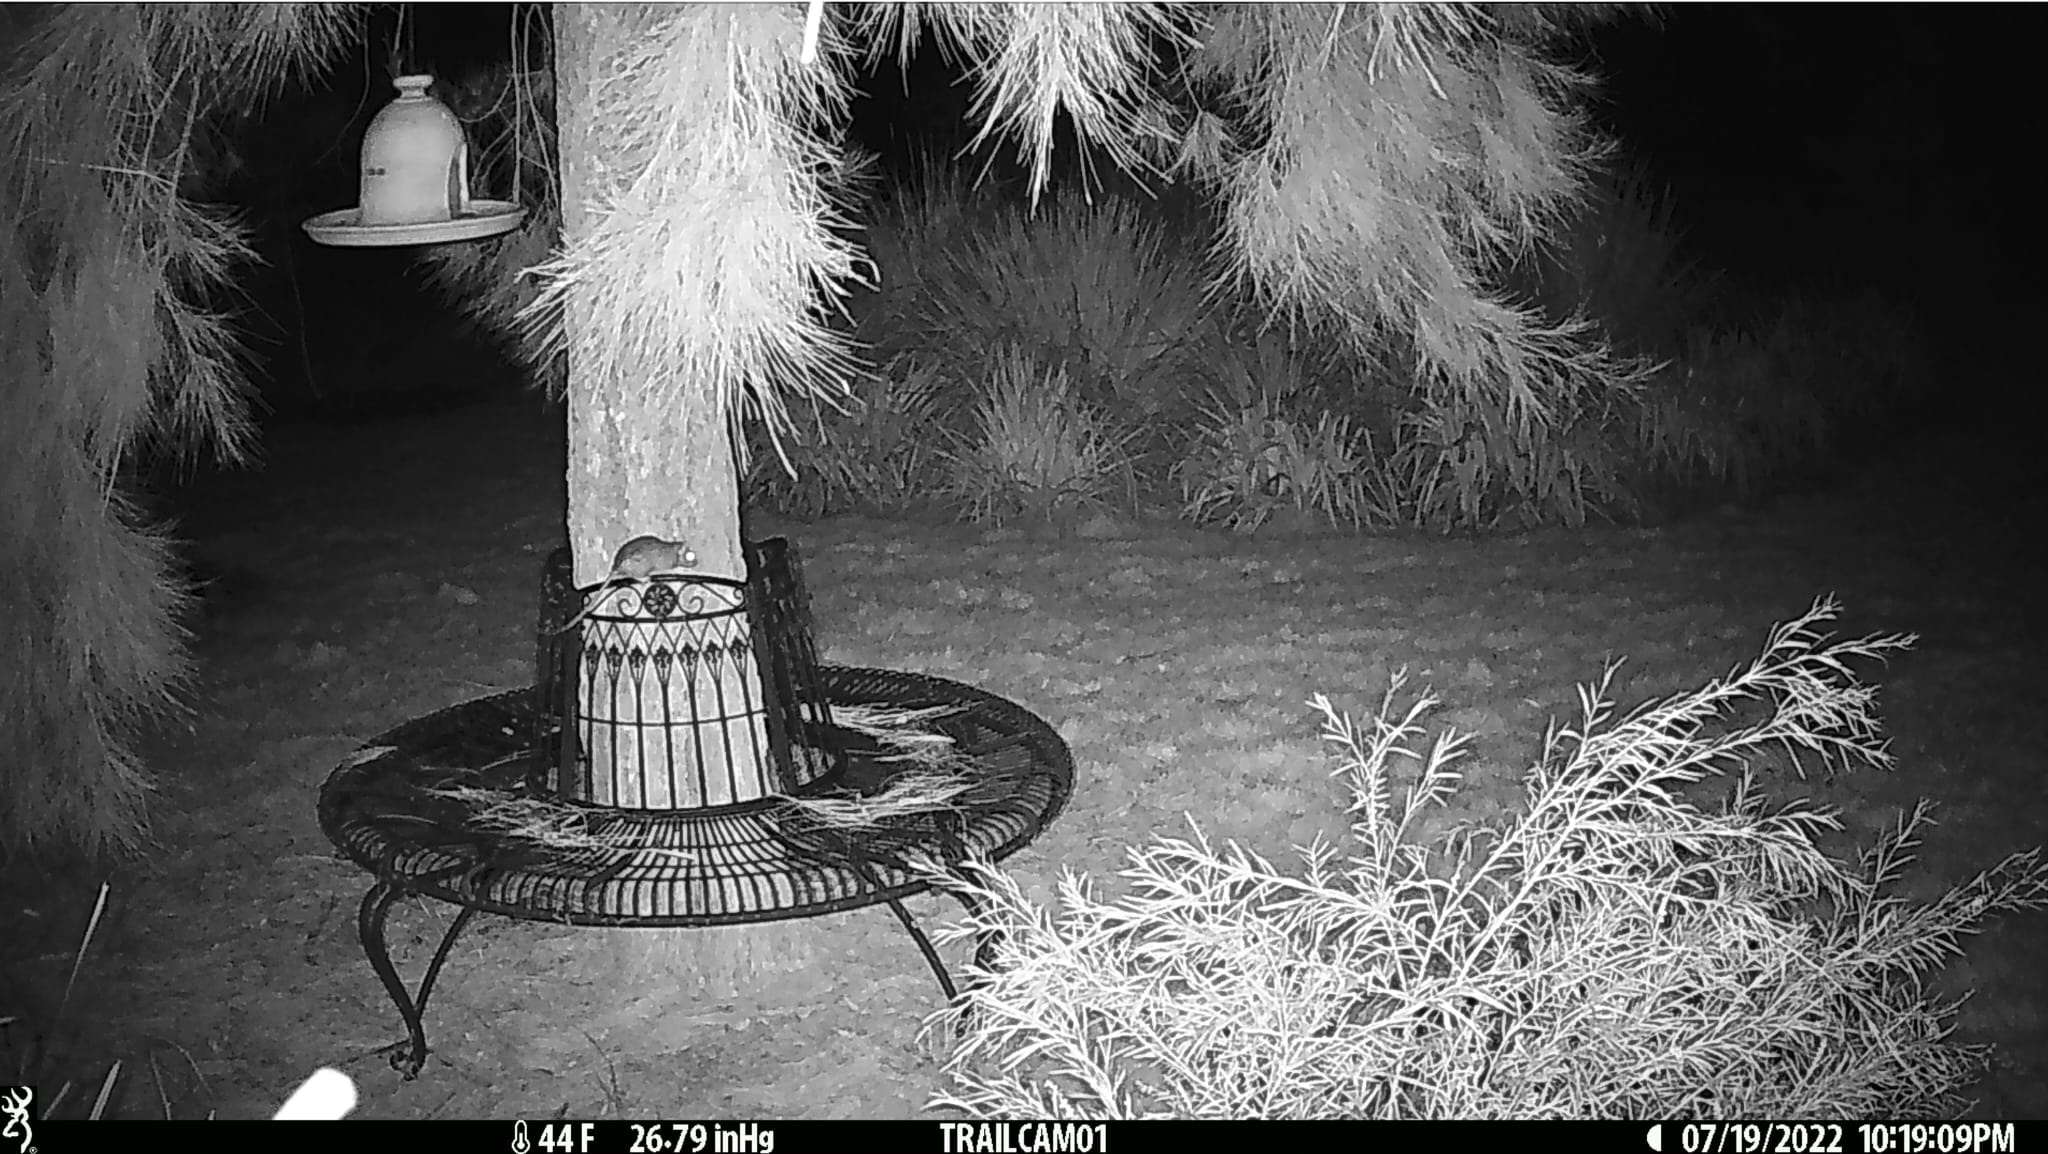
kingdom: Animalia
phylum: Chordata
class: Mammalia
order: Rodentia
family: Muridae
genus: Rattus
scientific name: Rattus rattus
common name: Black rat
